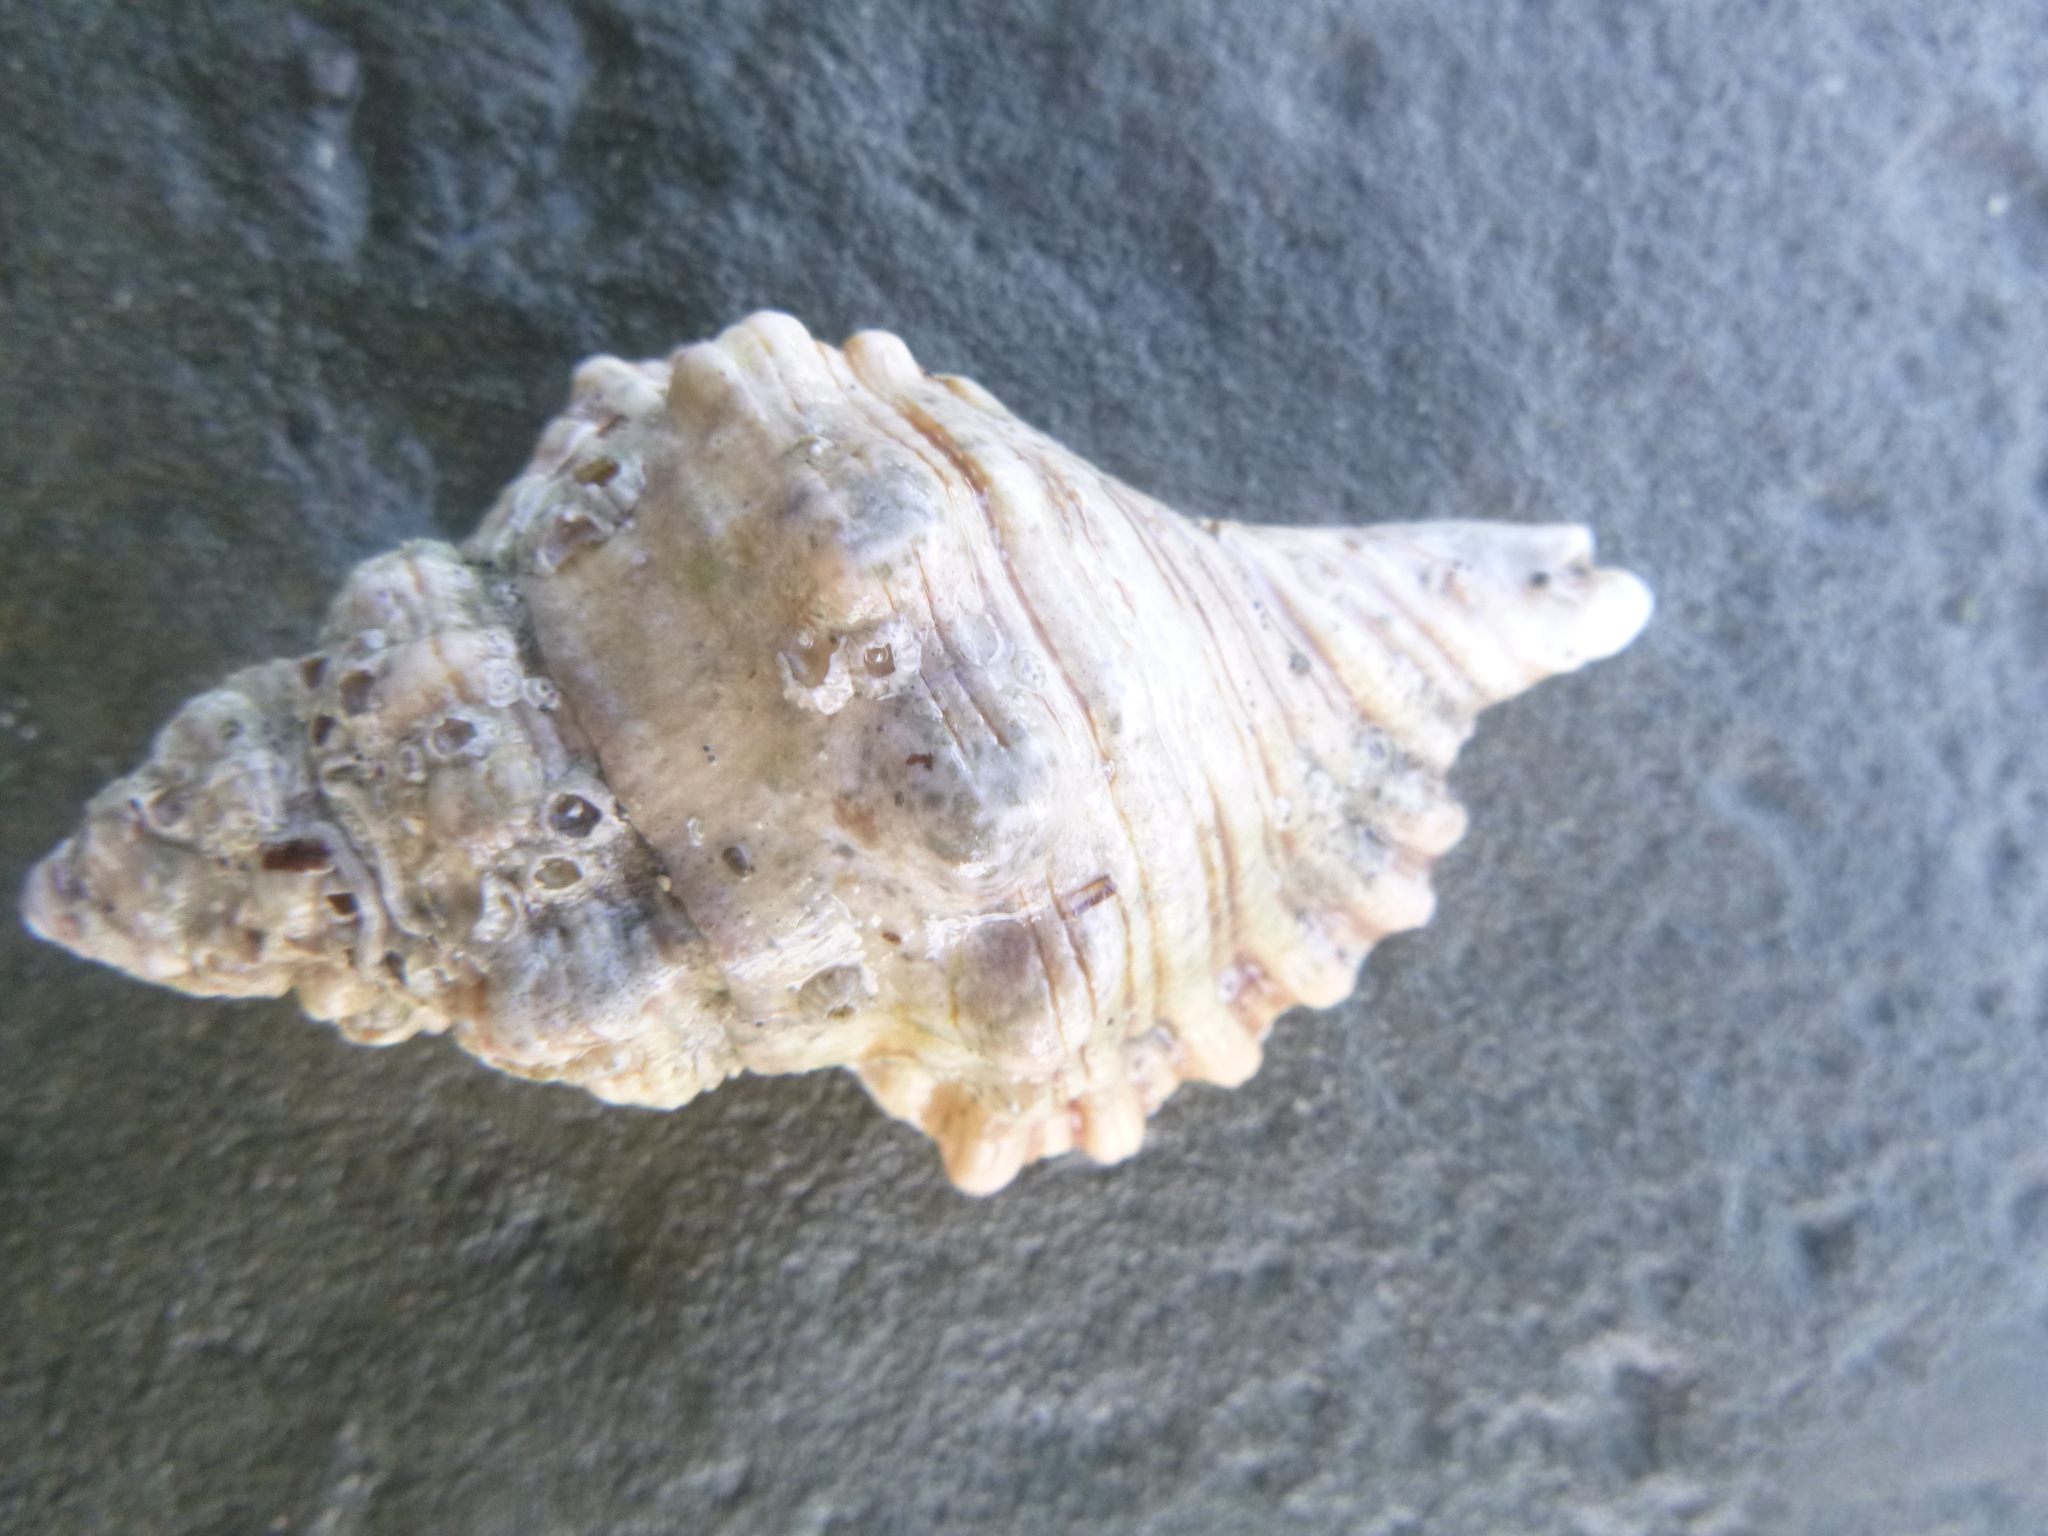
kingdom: Animalia
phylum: Mollusca
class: Gastropoda
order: Littorinimorpha
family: Cymatiidae
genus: Cabestana
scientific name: Cabestana spengleri
